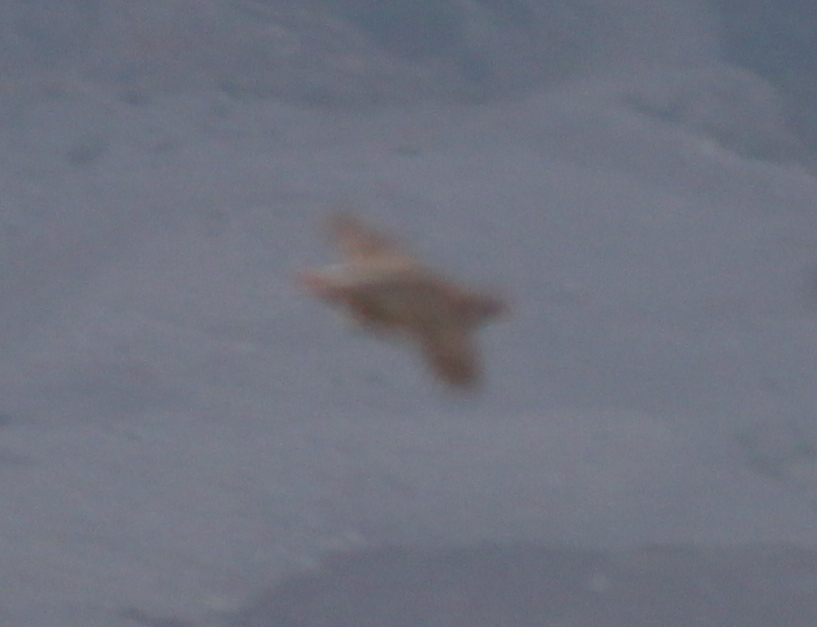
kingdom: Animalia
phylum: Chordata
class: Aves
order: Galliformes
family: Phasianidae
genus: Alectoris
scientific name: Alectoris graeca
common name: Rock partridge
